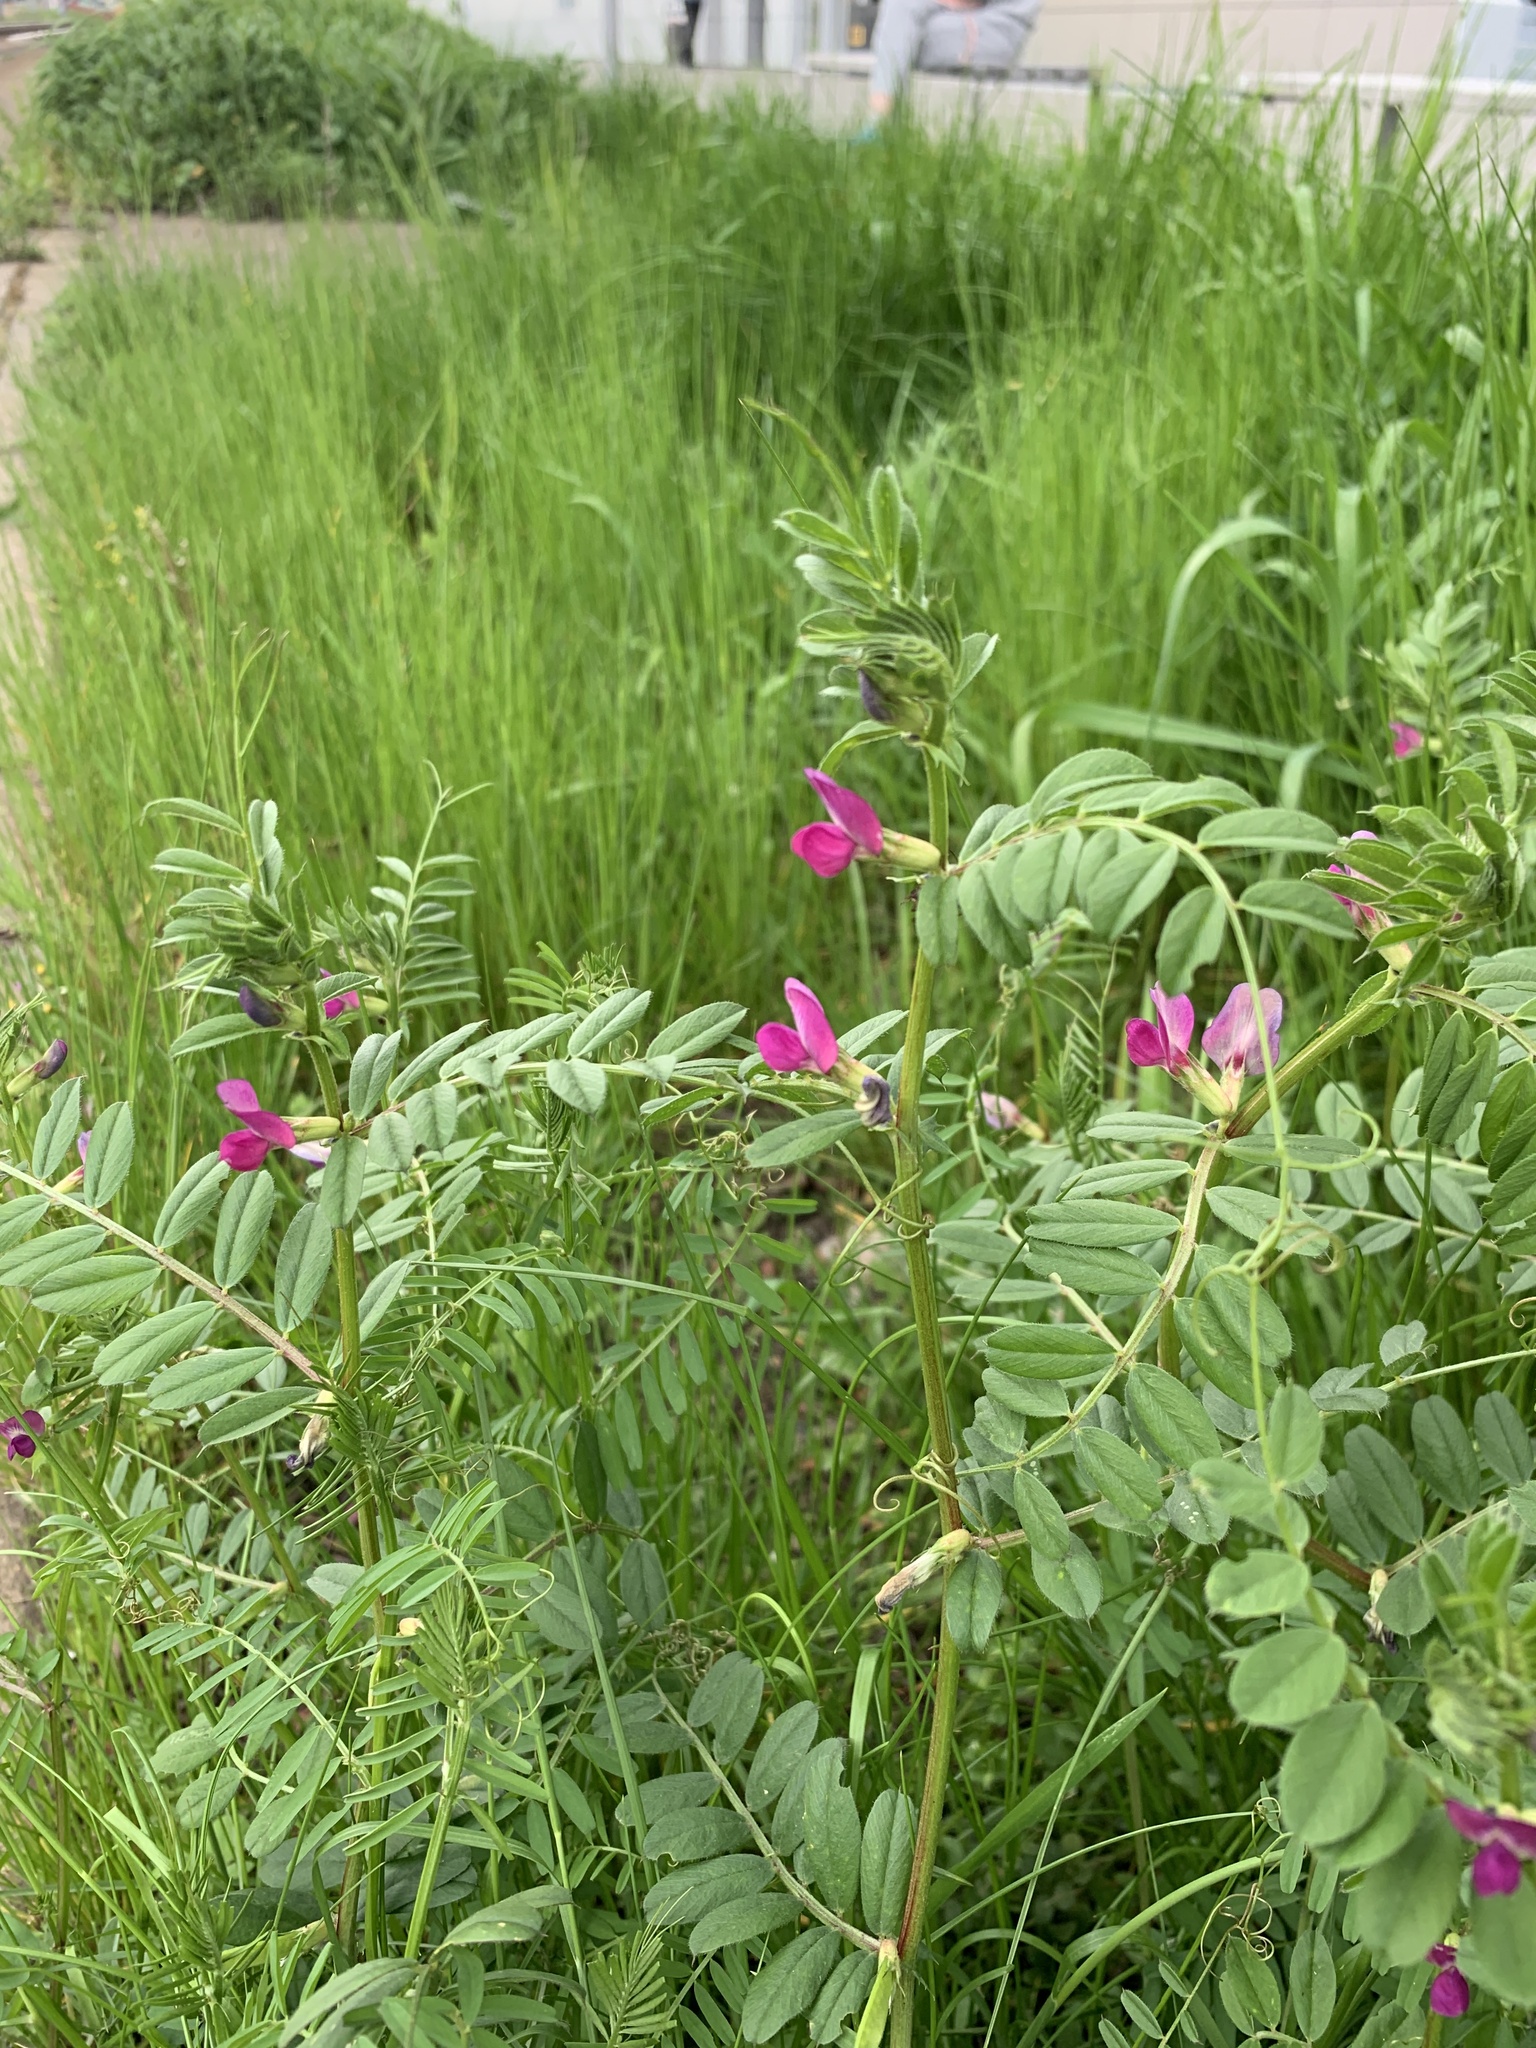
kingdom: Plantae
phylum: Tracheophyta
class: Magnoliopsida
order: Fabales
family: Fabaceae
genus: Vicia
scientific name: Vicia sativa
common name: Garden vetch
